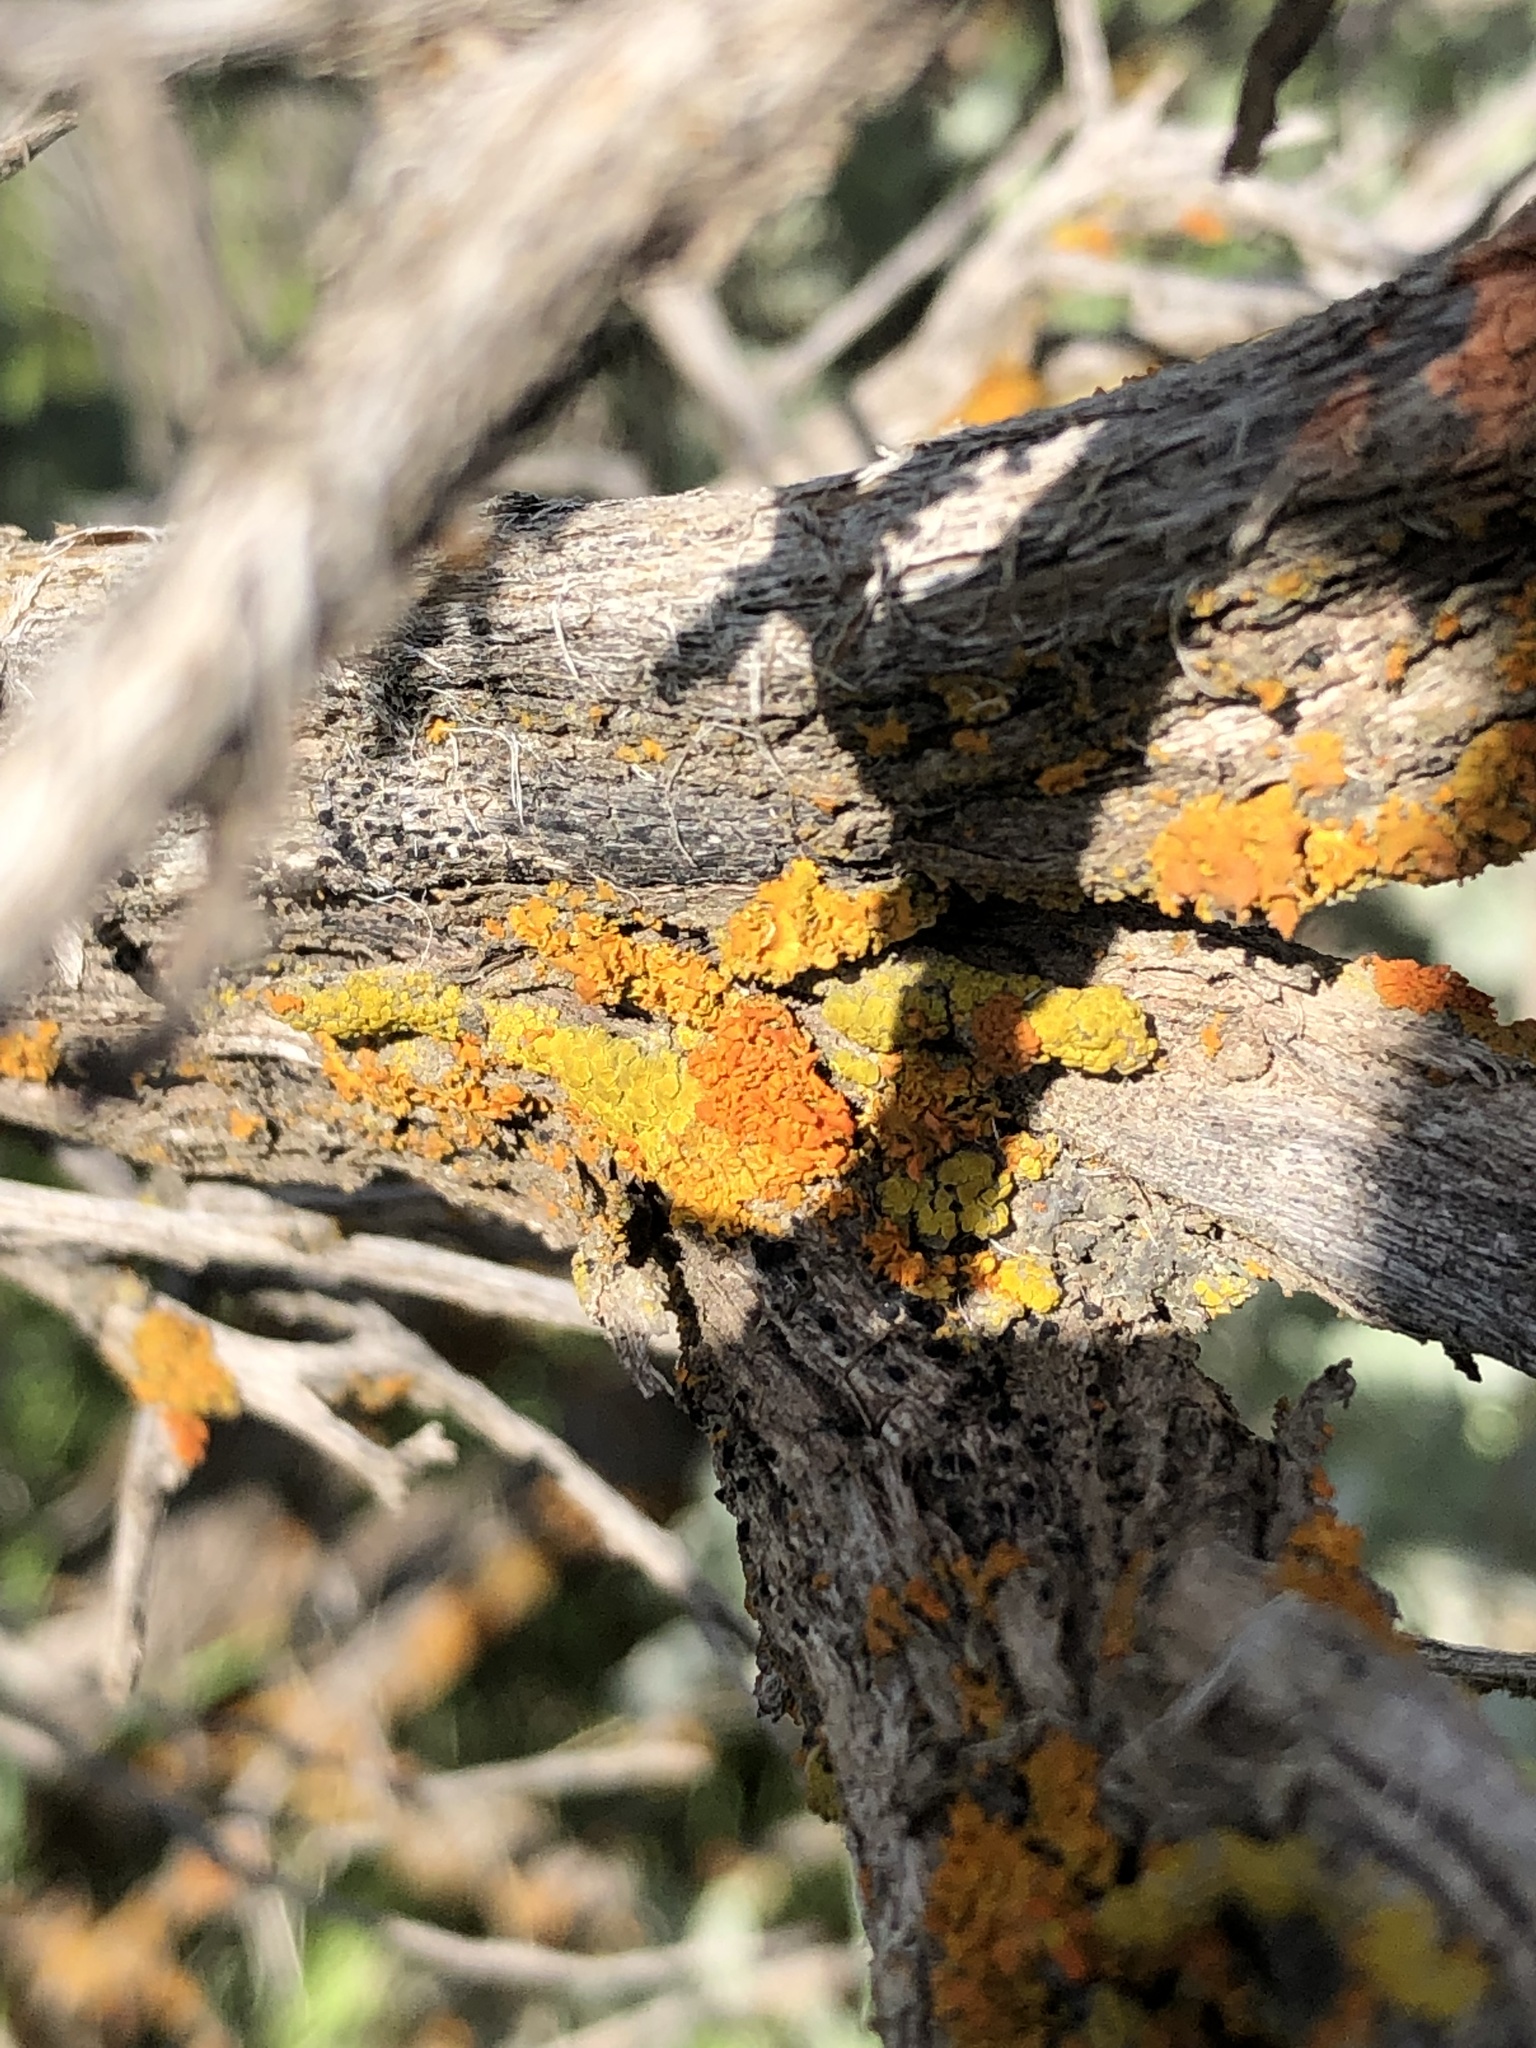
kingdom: Fungi
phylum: Ascomycota
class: Lecanoromycetes
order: Teloschistales
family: Teloschistaceae
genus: Oxneria
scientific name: Oxneria fallax
